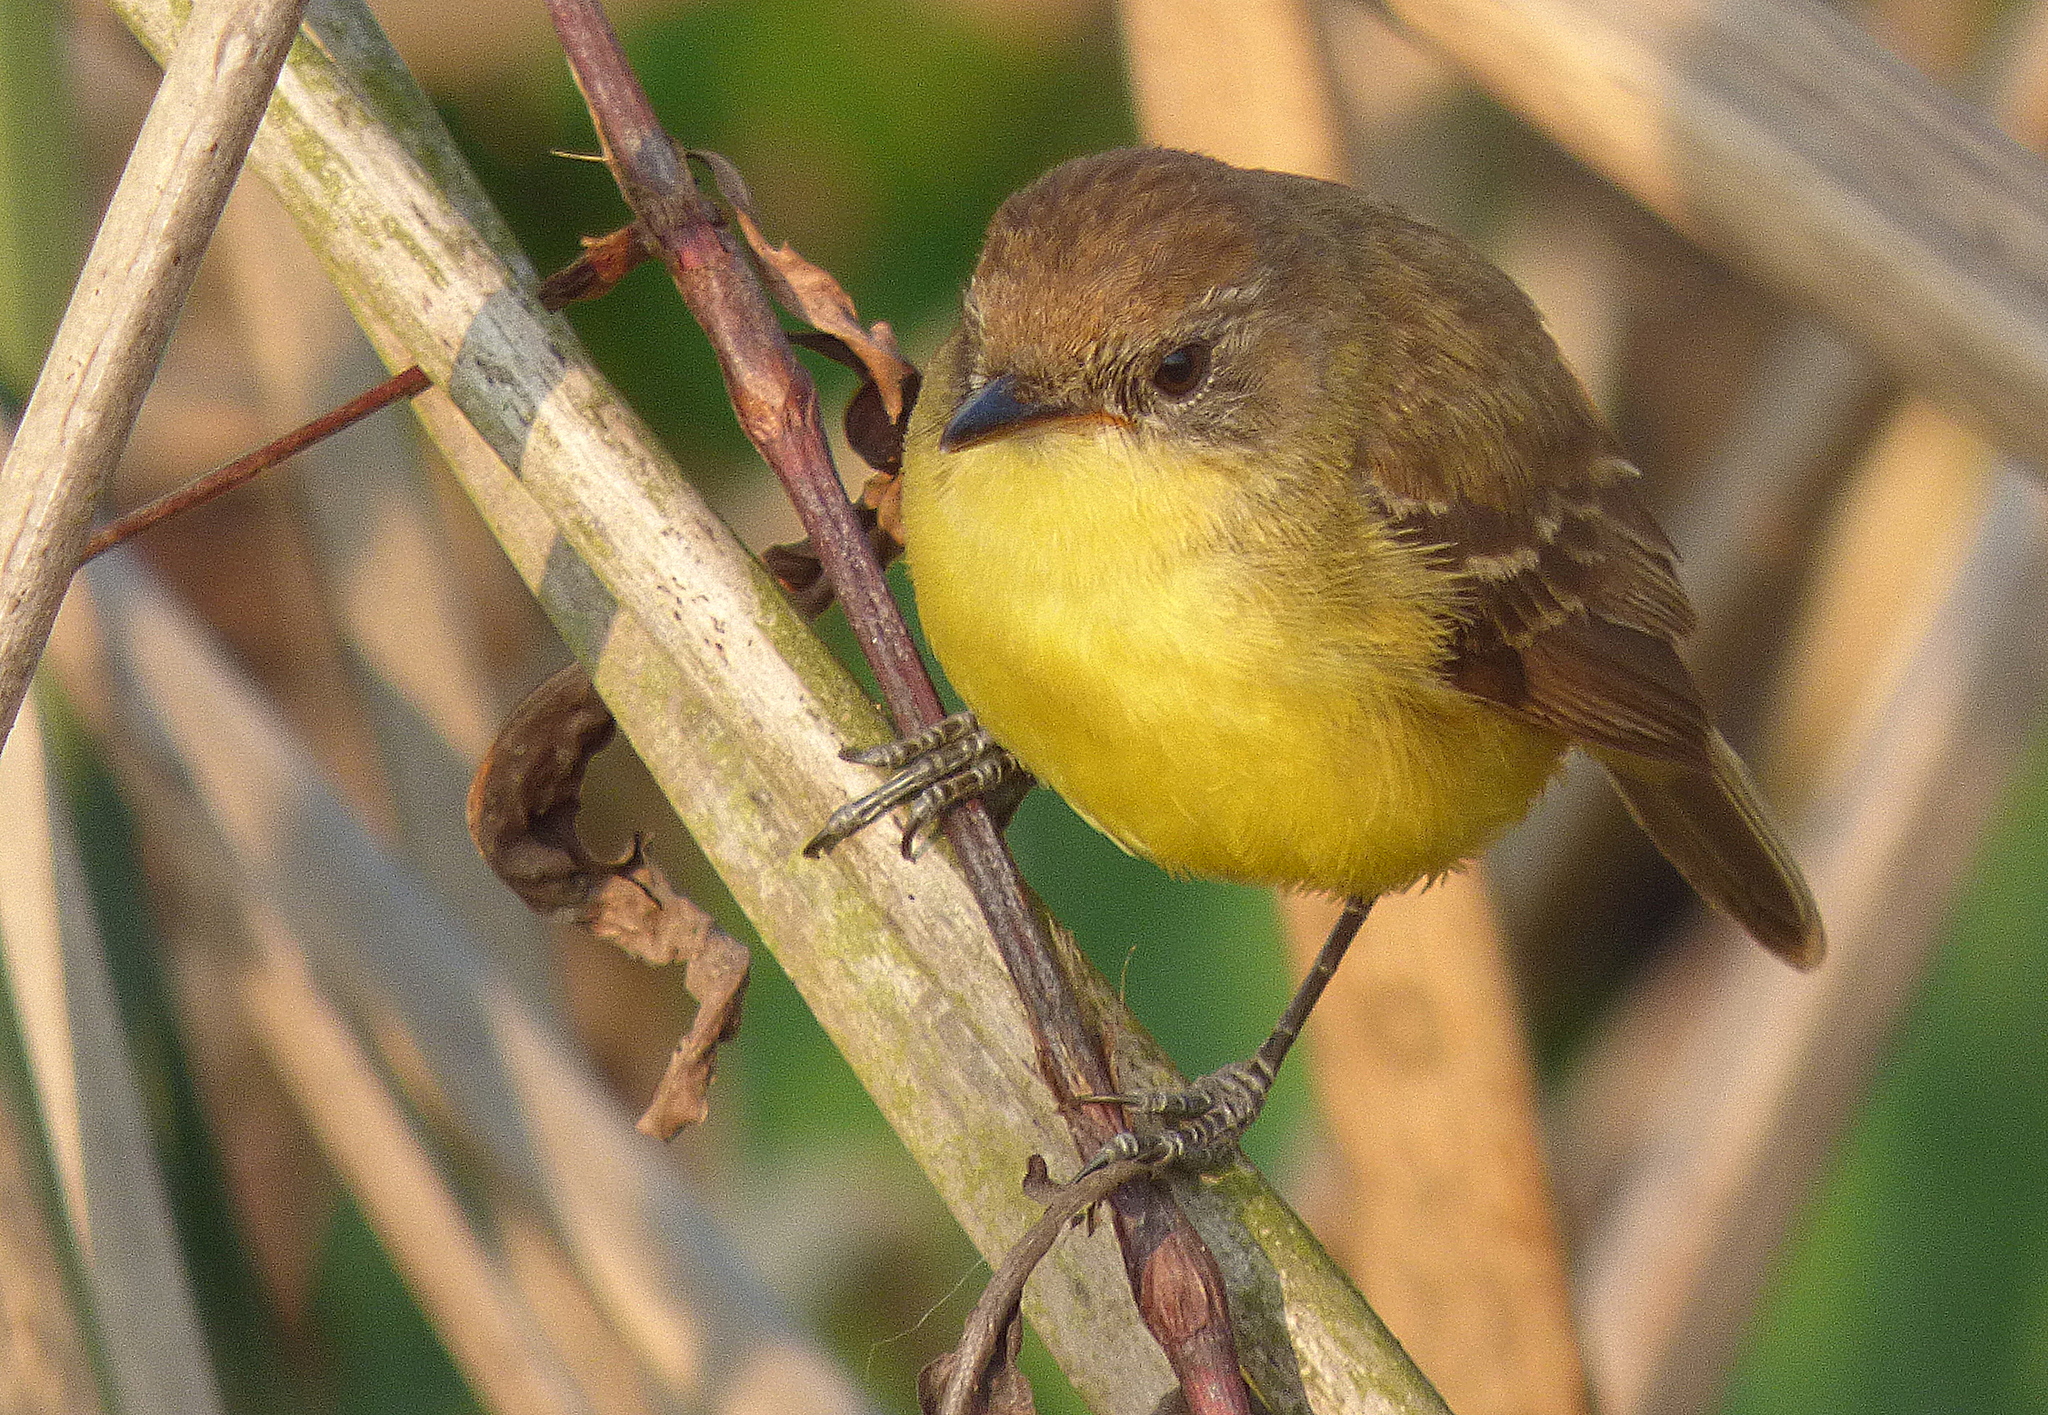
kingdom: Animalia
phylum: Chordata
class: Aves
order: Passeriformes
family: Tyrannidae
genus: Pseudocolopteryx
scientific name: Pseudocolopteryx flaviventris
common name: Warbling doradito
